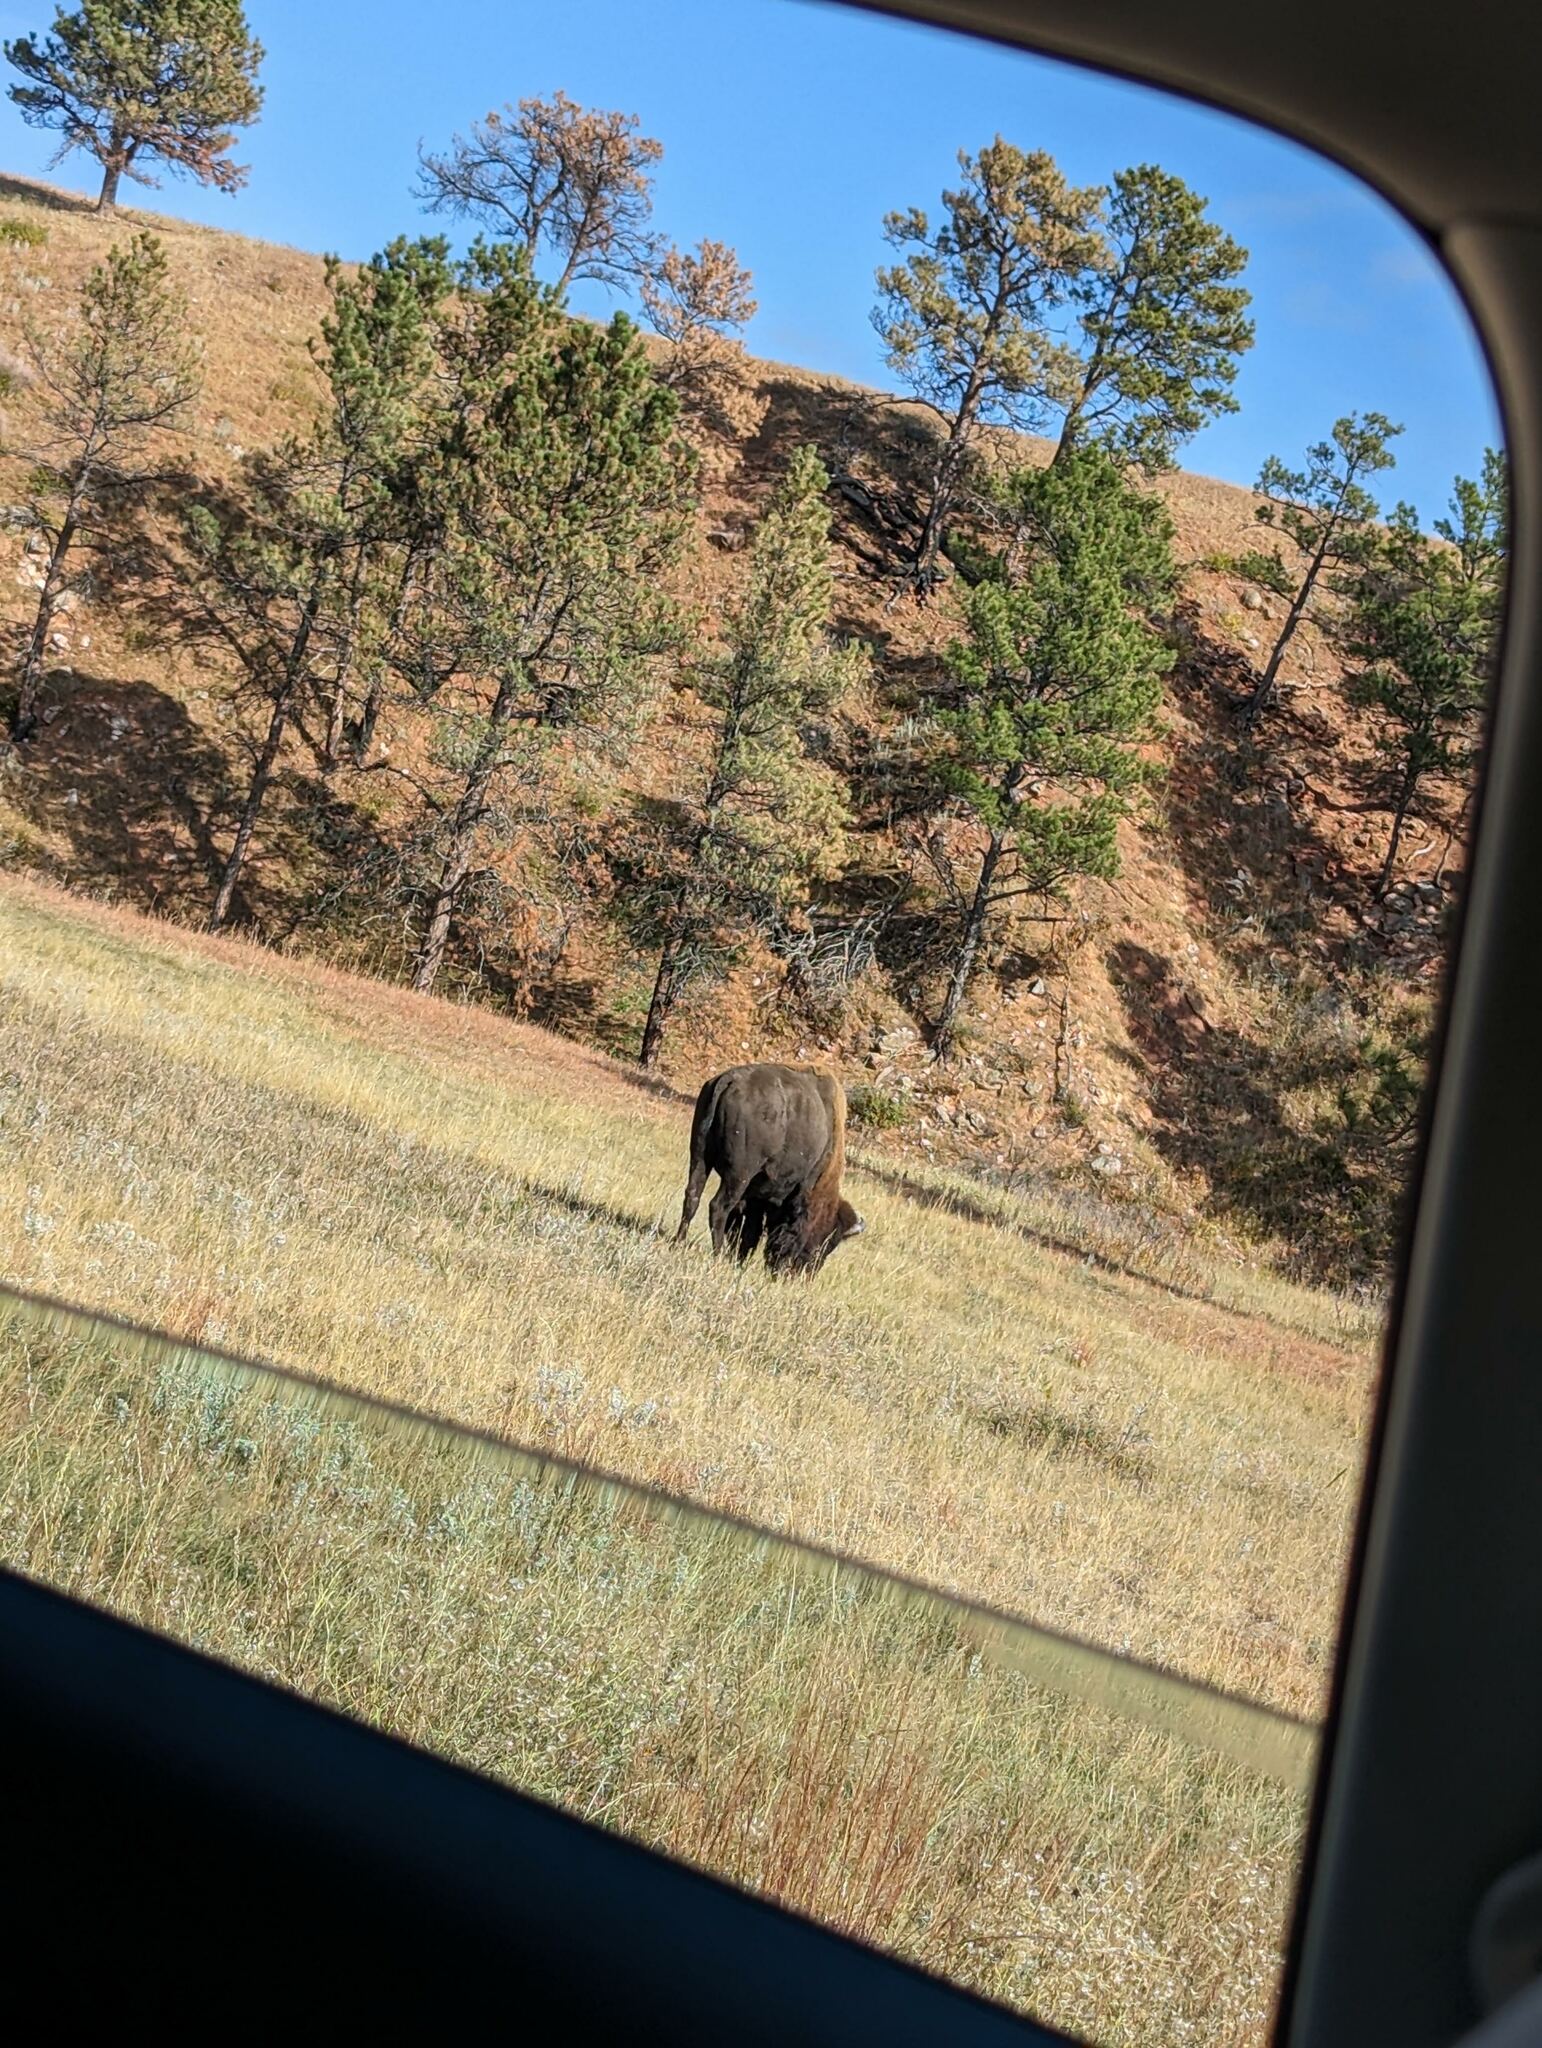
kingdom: Animalia
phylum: Chordata
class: Mammalia
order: Artiodactyla
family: Bovidae
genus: Bison
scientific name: Bison bison
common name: American bison
